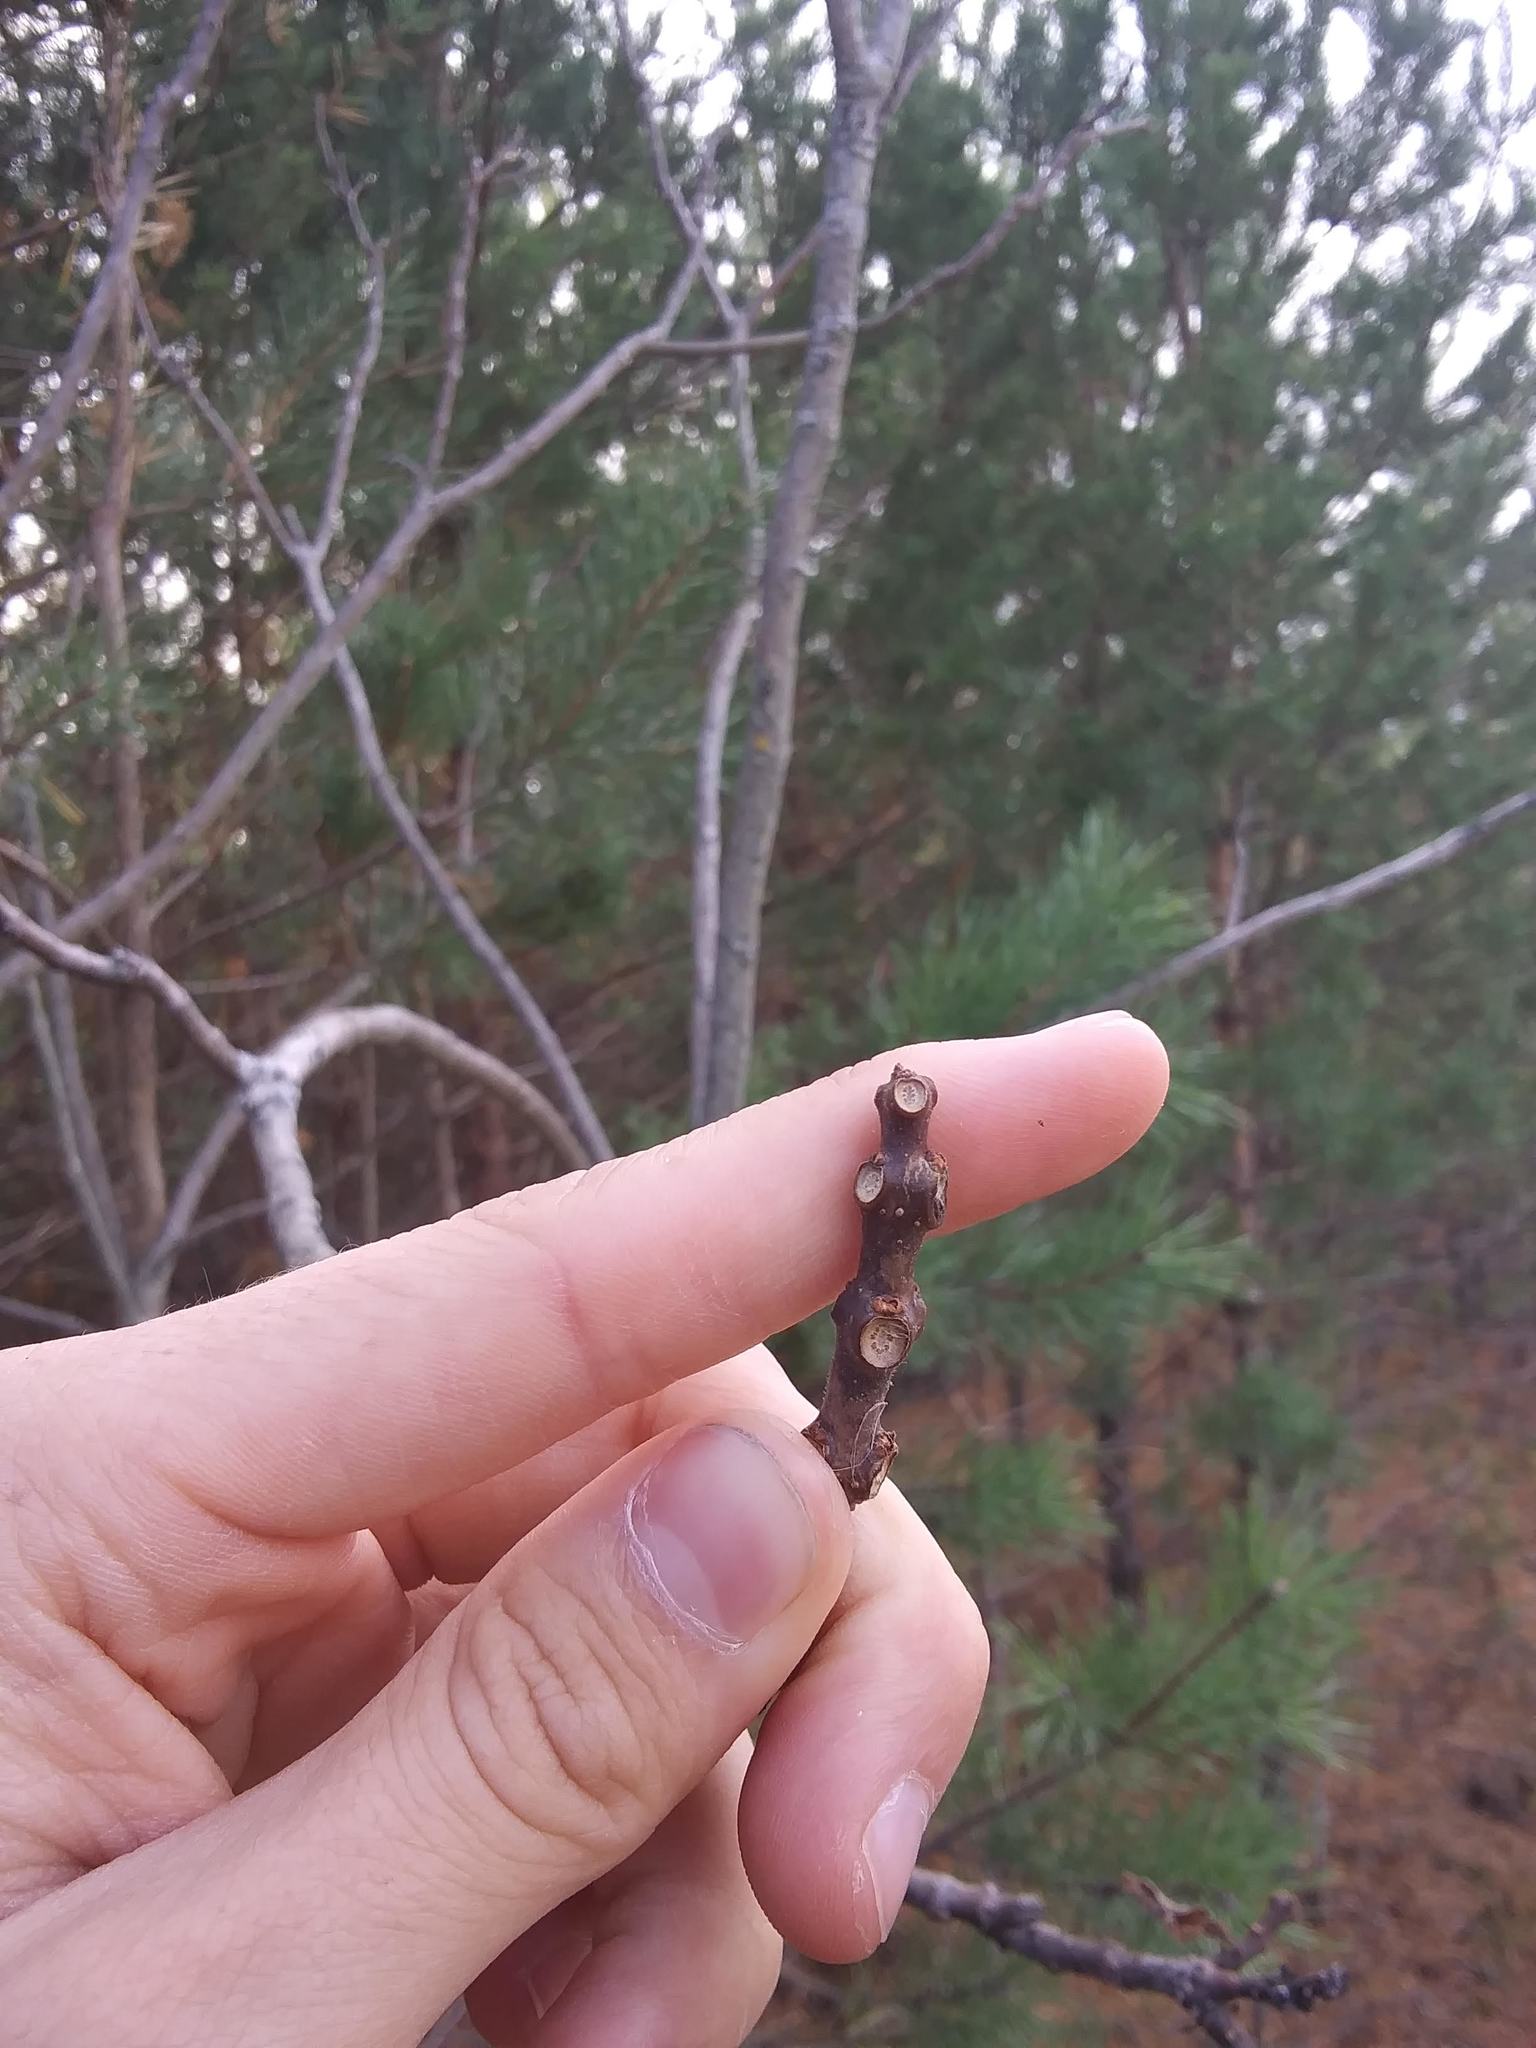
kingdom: Plantae
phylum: Tracheophyta
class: Magnoliopsida
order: Lamiales
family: Bignoniaceae
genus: Catalpa
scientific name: Catalpa speciosa
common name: Northern catalpa
